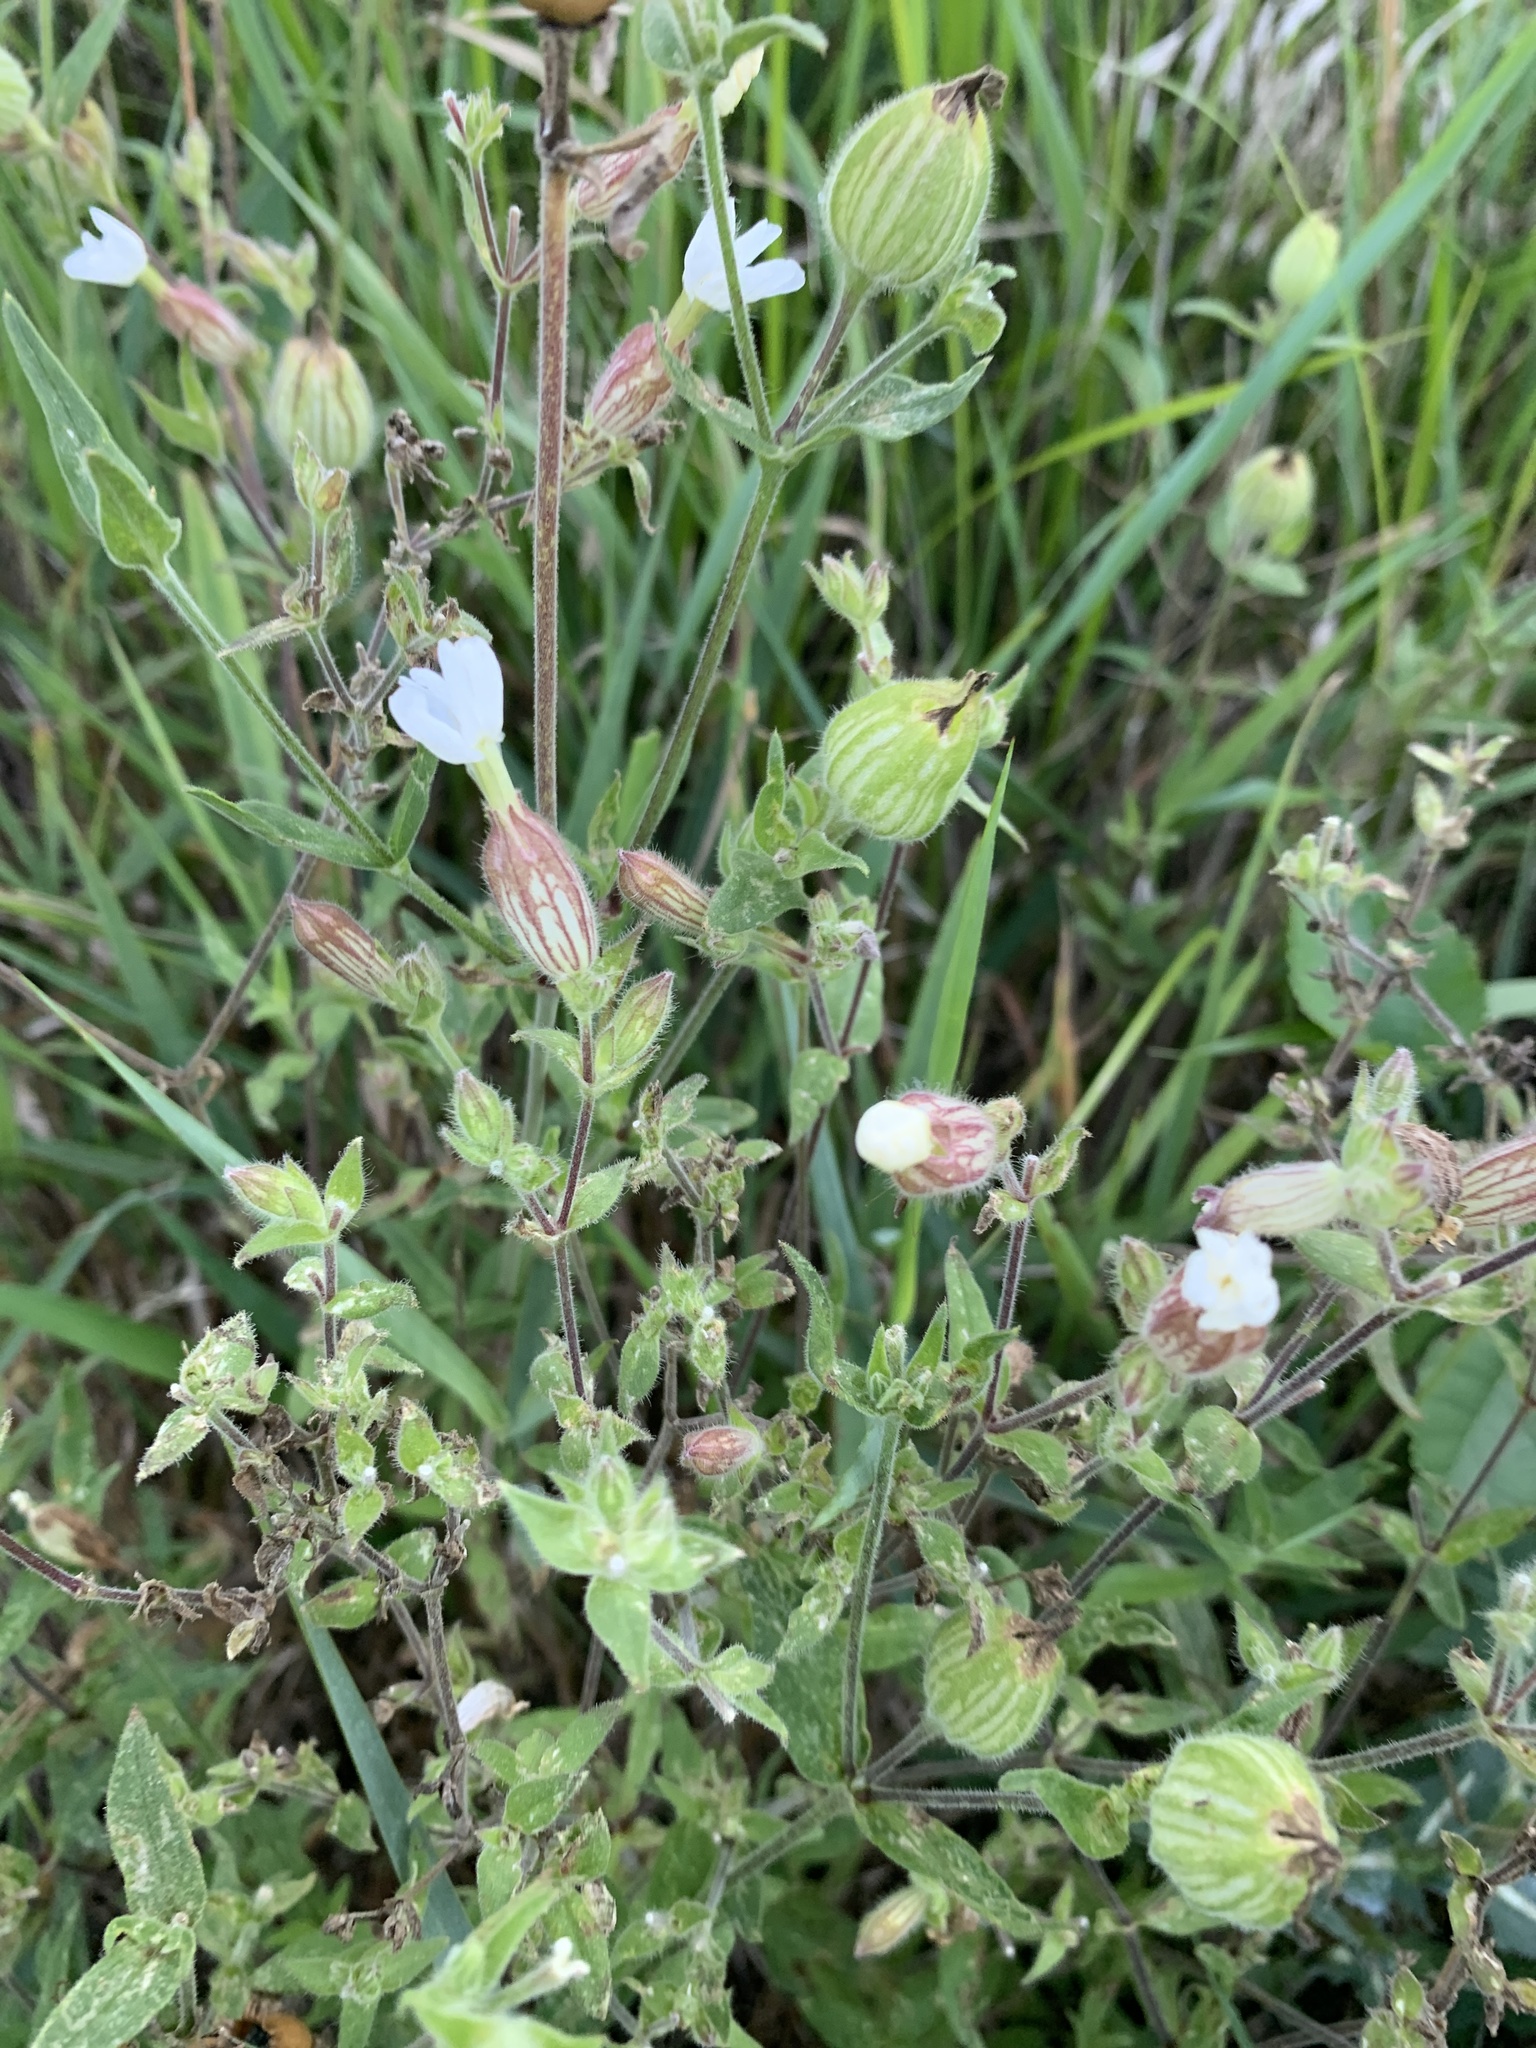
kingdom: Plantae
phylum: Tracheophyta
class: Magnoliopsida
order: Caryophyllales
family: Caryophyllaceae
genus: Silene
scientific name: Silene latifolia
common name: White campion
